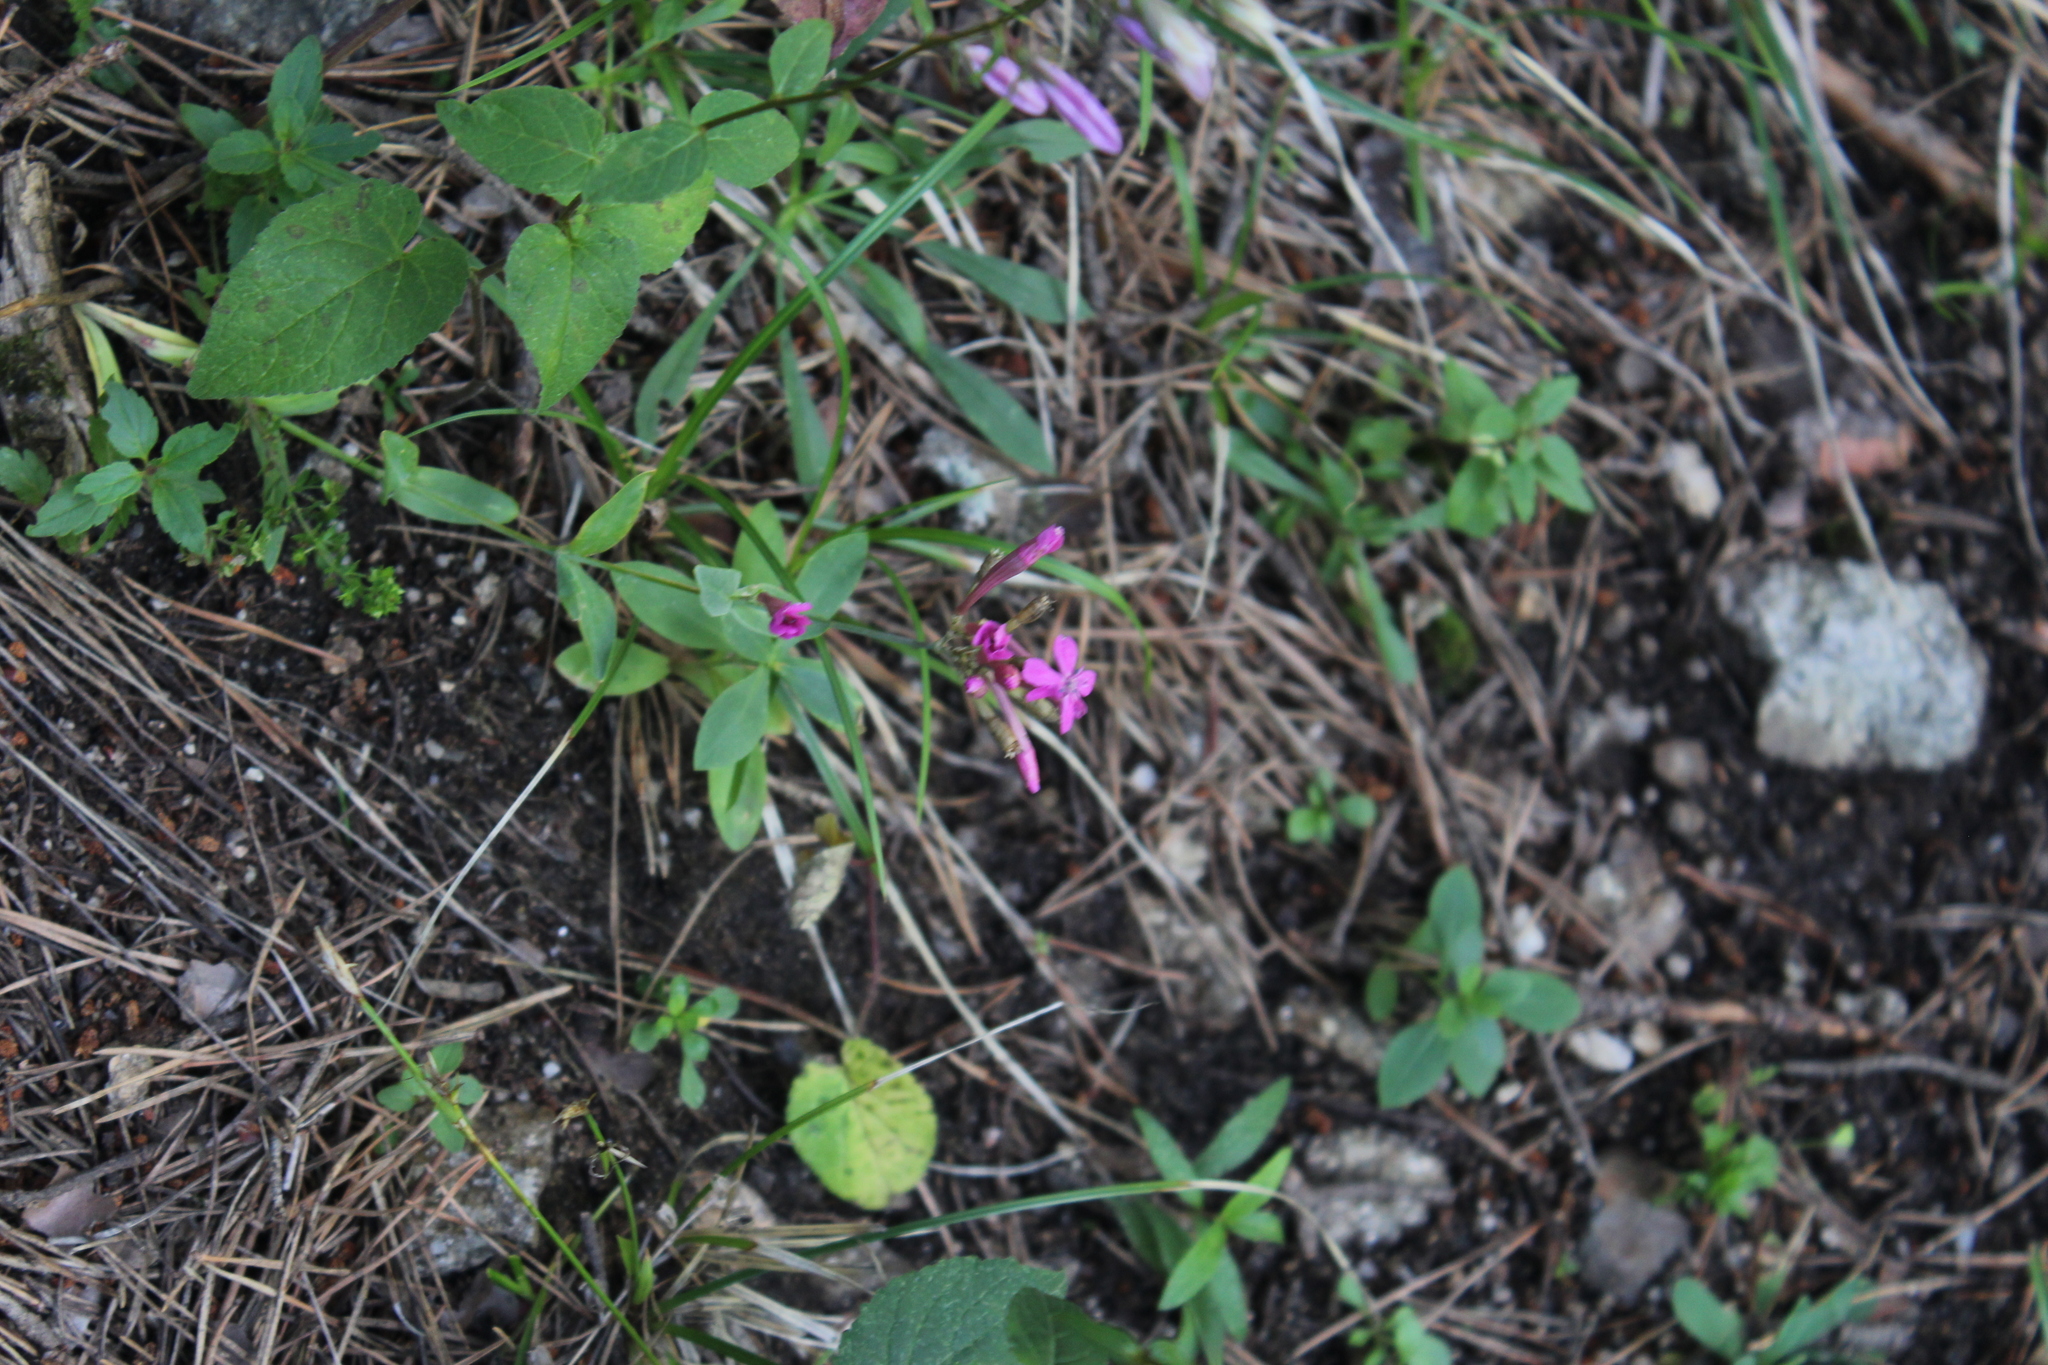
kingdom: Plantae
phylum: Tracheophyta
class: Magnoliopsida
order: Caryophyllales
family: Caryophyllaceae
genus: Atocion
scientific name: Atocion compactum
